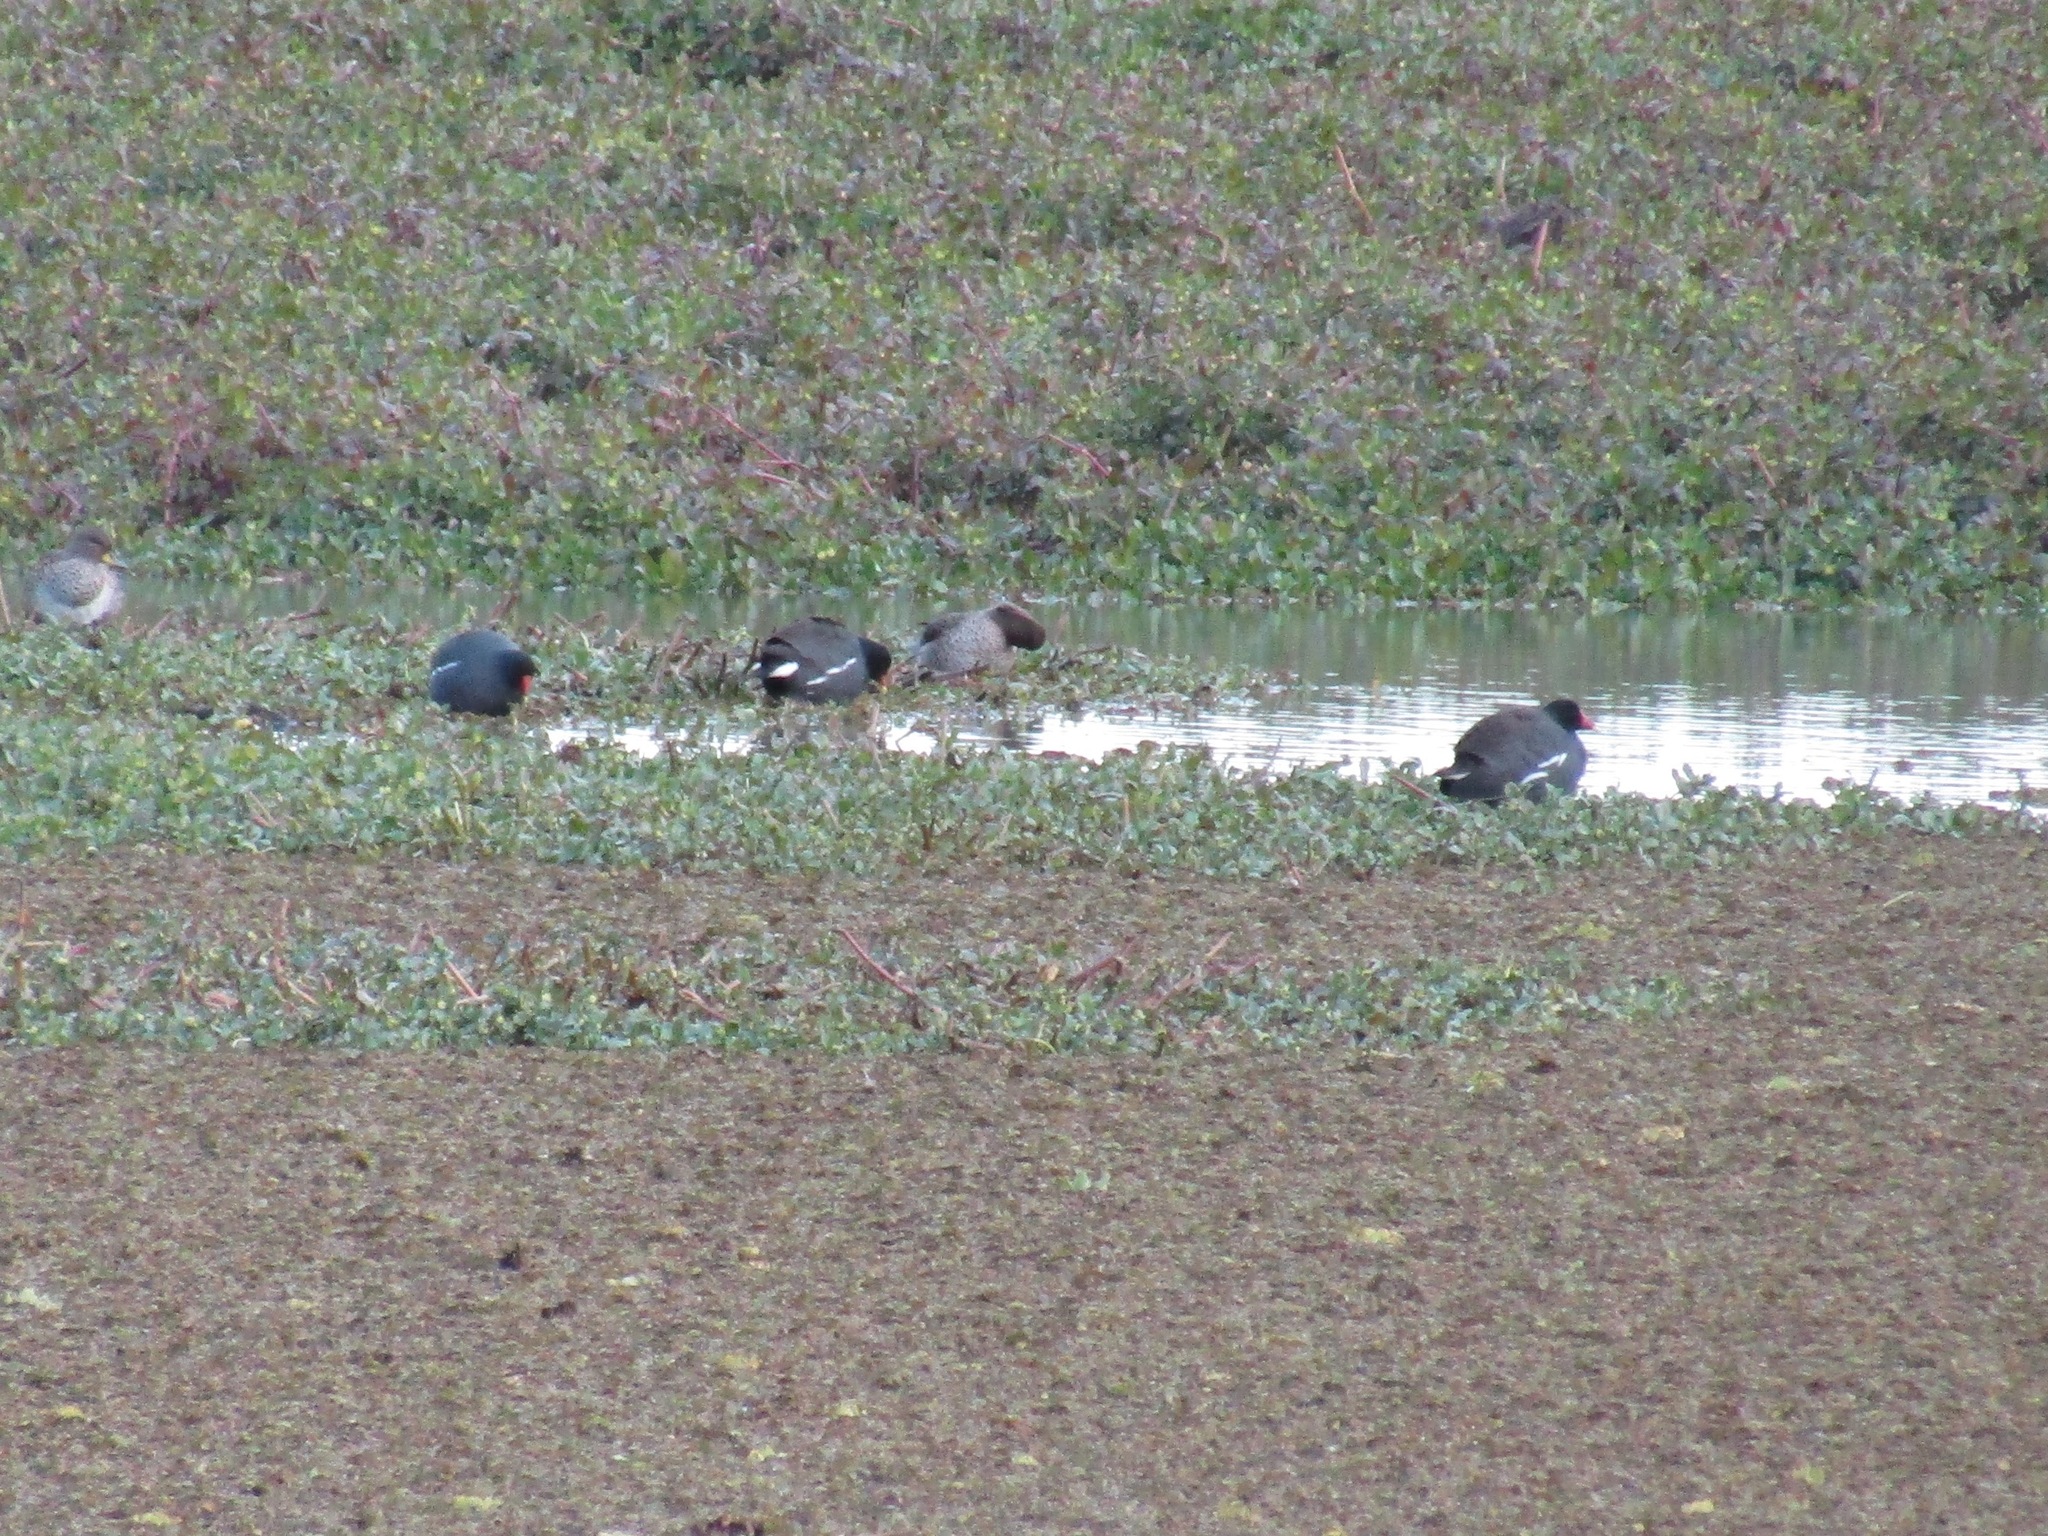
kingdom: Animalia
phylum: Chordata
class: Aves
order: Gruiformes
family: Rallidae
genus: Gallinula
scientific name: Gallinula chloropus
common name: Common moorhen
